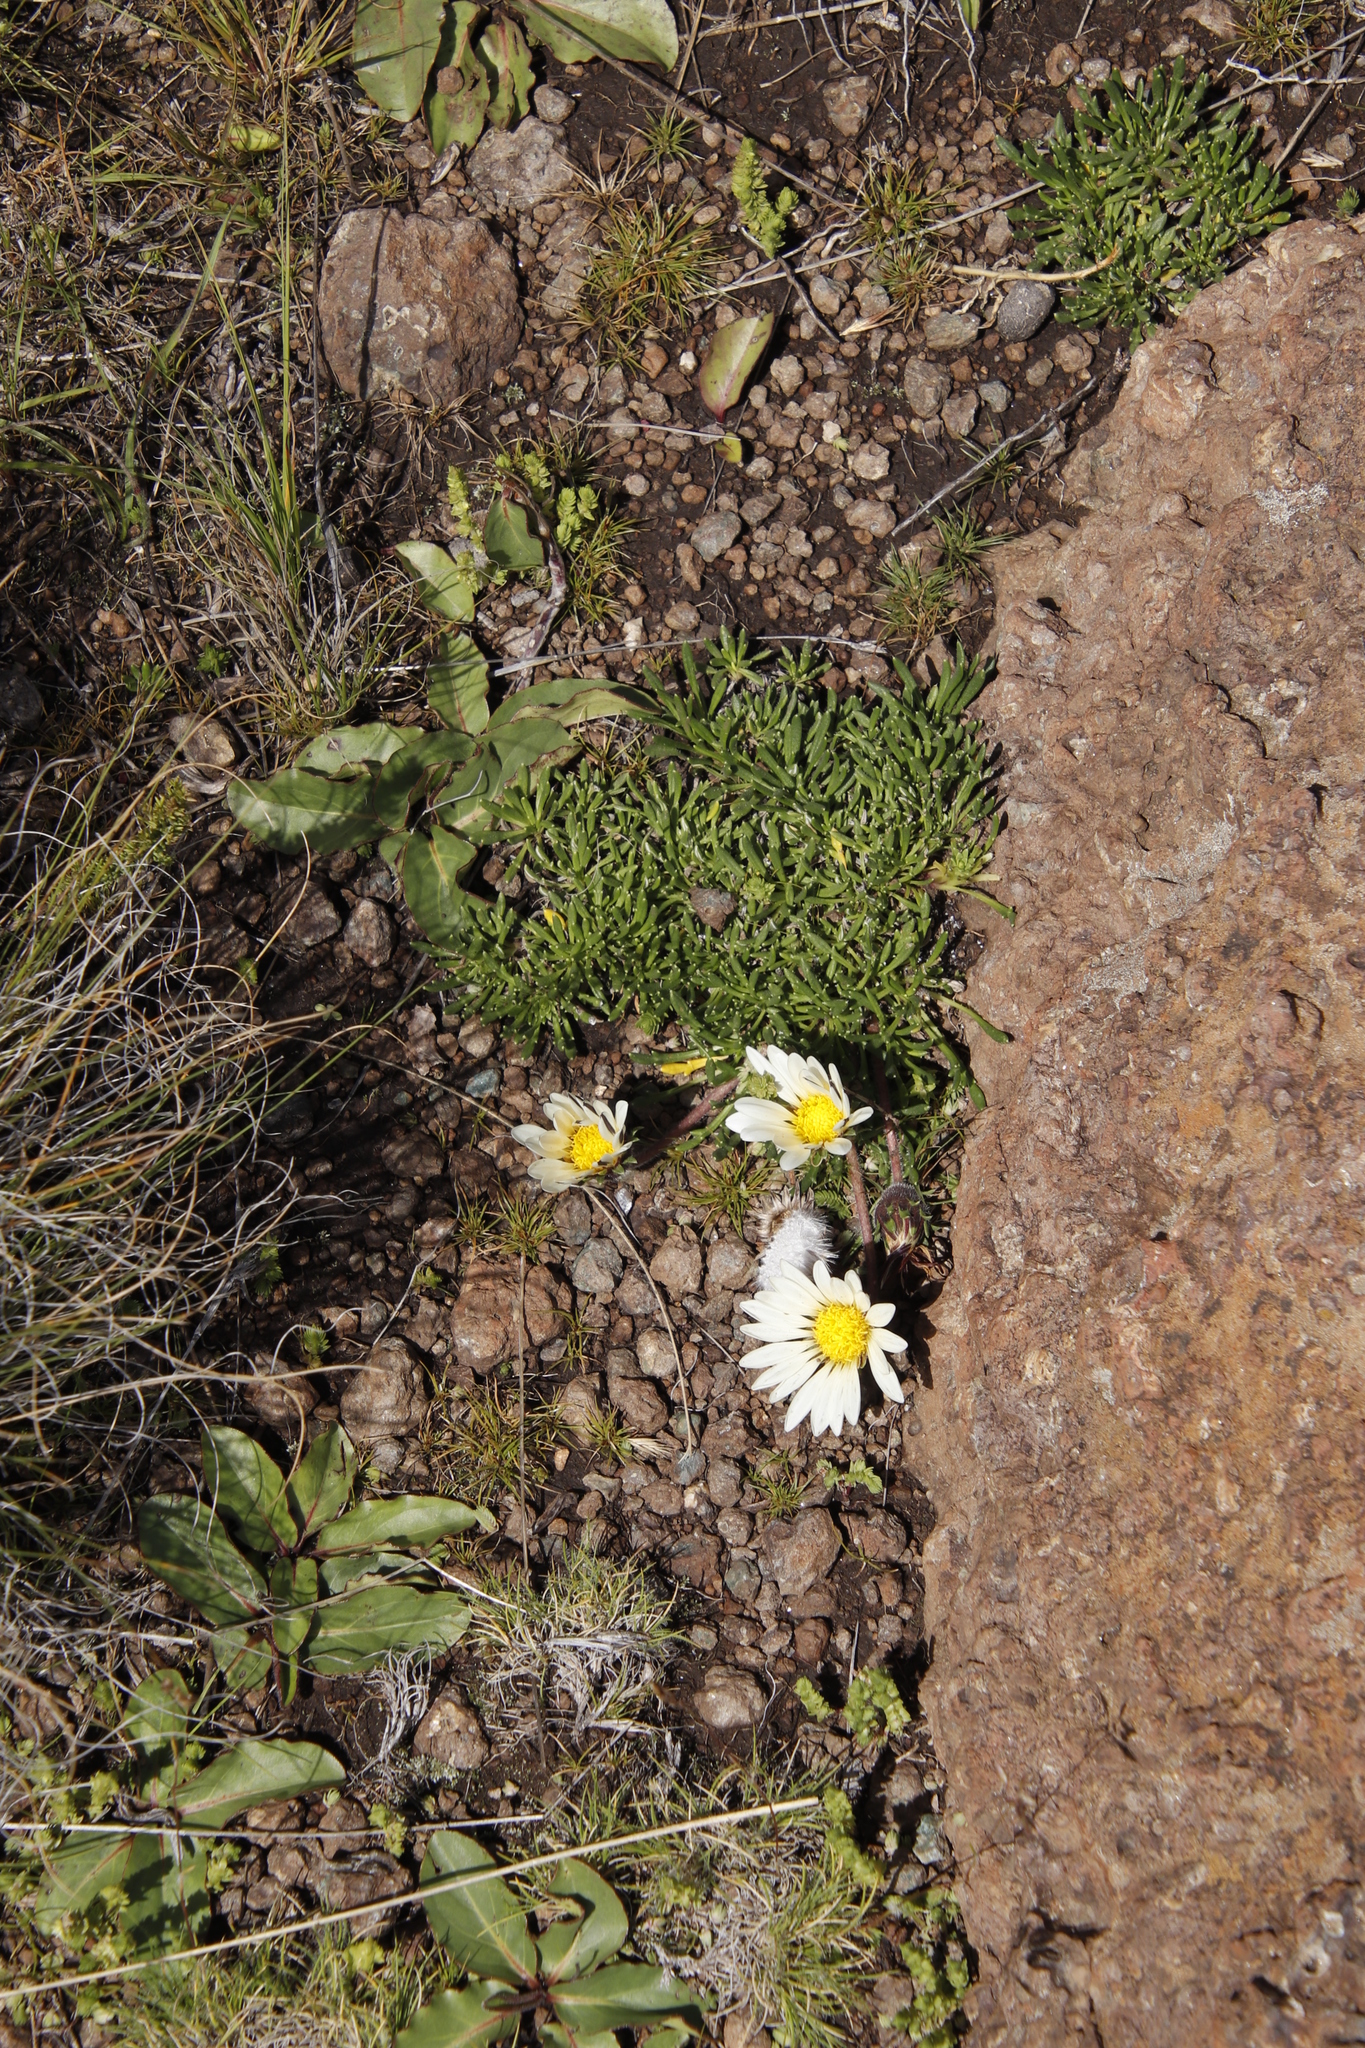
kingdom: Plantae
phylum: Tracheophyta
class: Magnoliopsida
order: Asterales
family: Asteraceae
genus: Roessleria
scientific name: Roessleria armerioides
